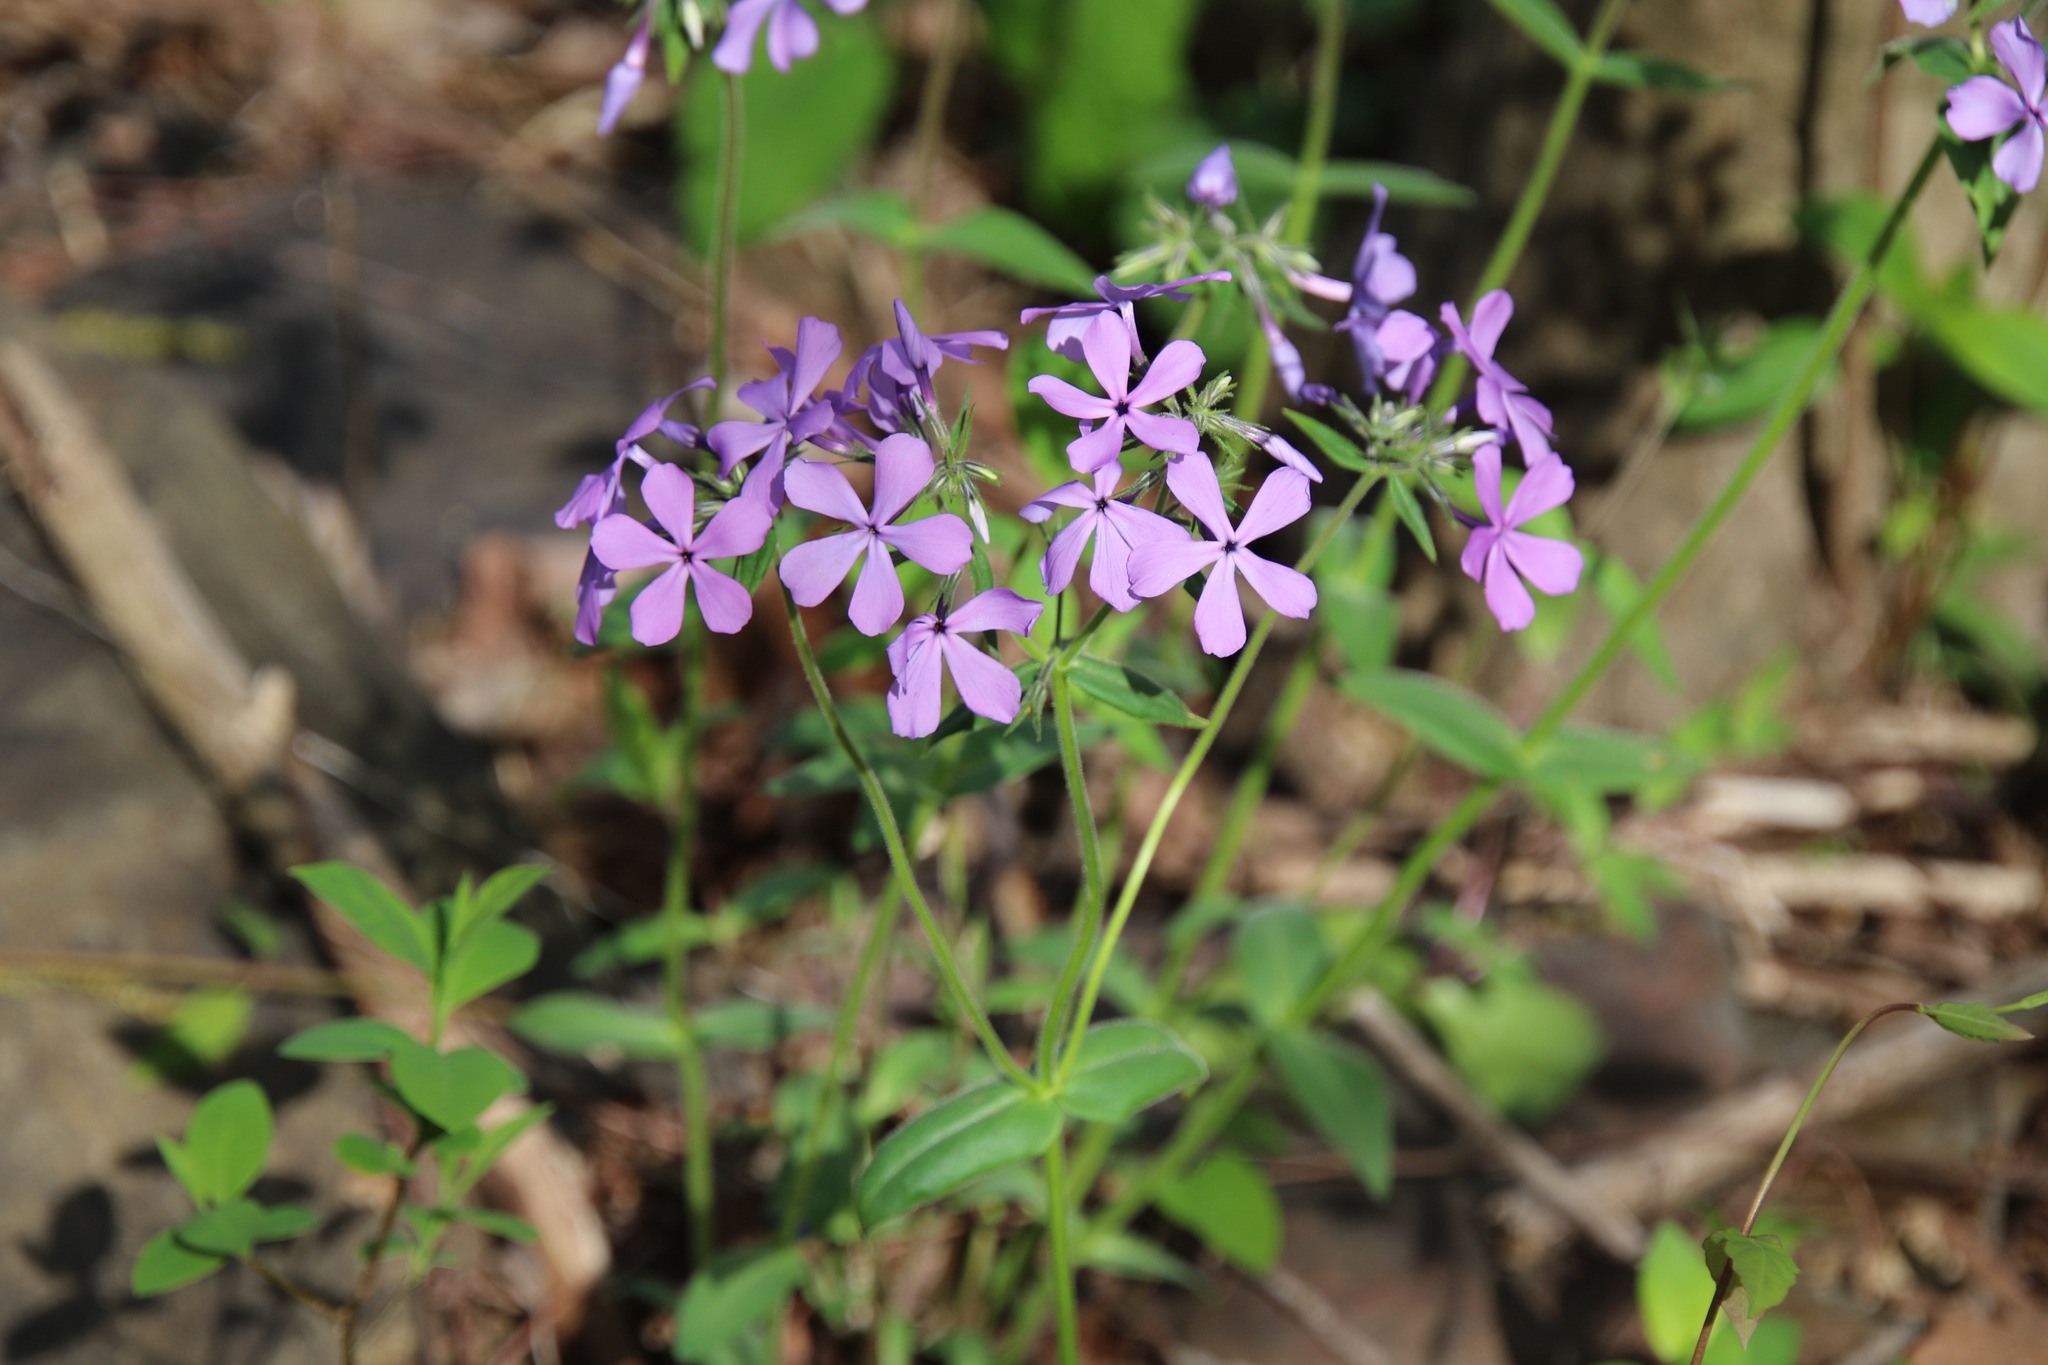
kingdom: Plantae
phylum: Tracheophyta
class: Magnoliopsida
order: Ericales
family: Polemoniaceae
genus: Phlox
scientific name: Phlox divaricata
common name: Blue phlox
